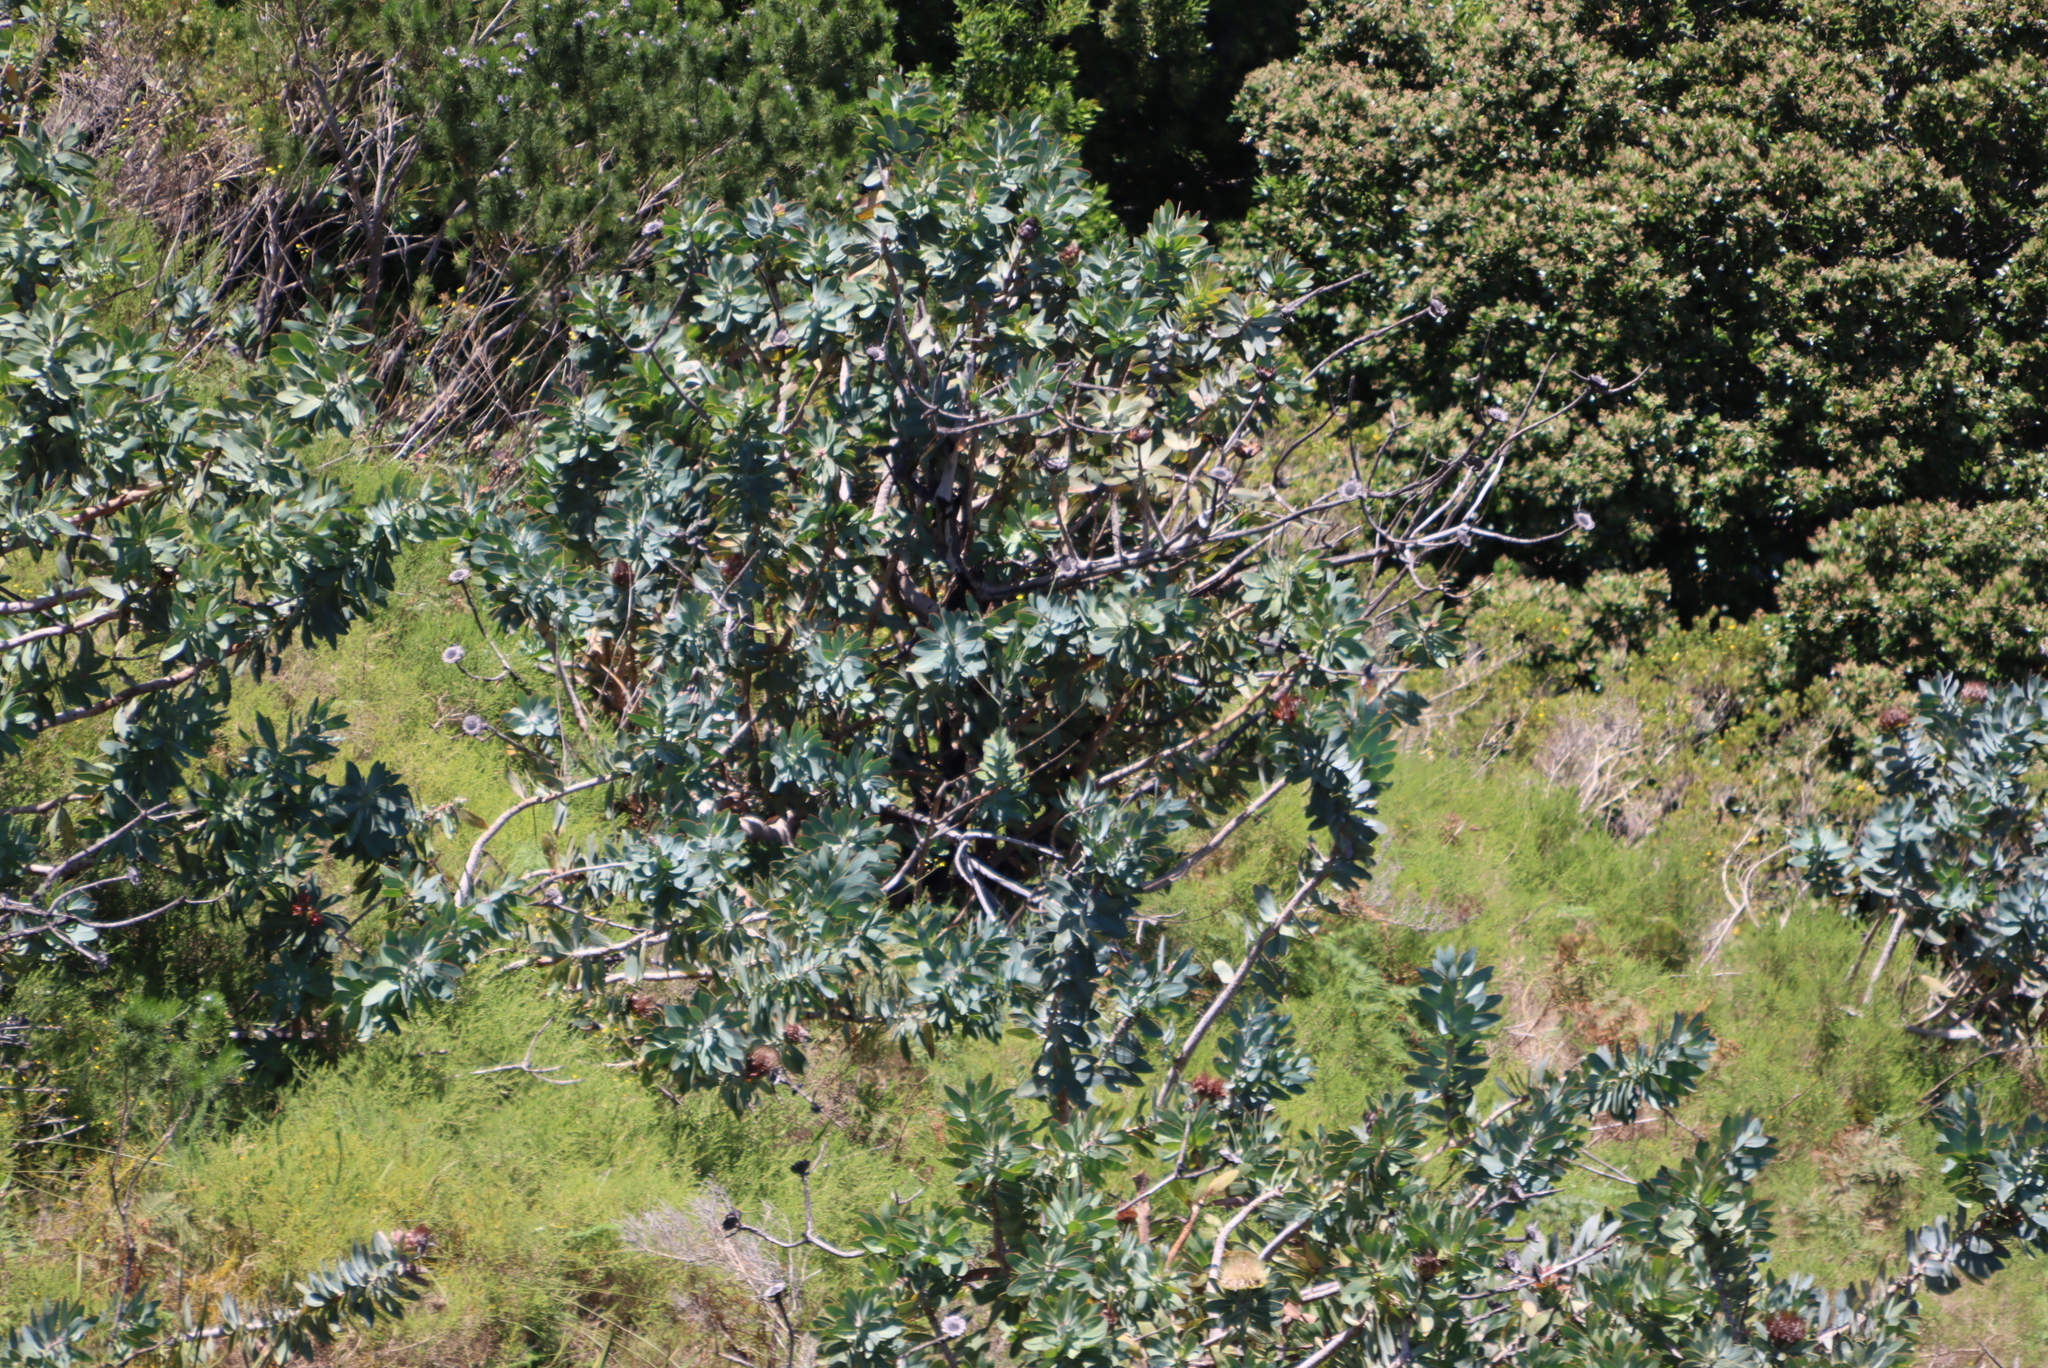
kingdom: Plantae
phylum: Tracheophyta
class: Magnoliopsida
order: Proteales
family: Proteaceae
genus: Protea
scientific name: Protea nitida
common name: Tree protea
